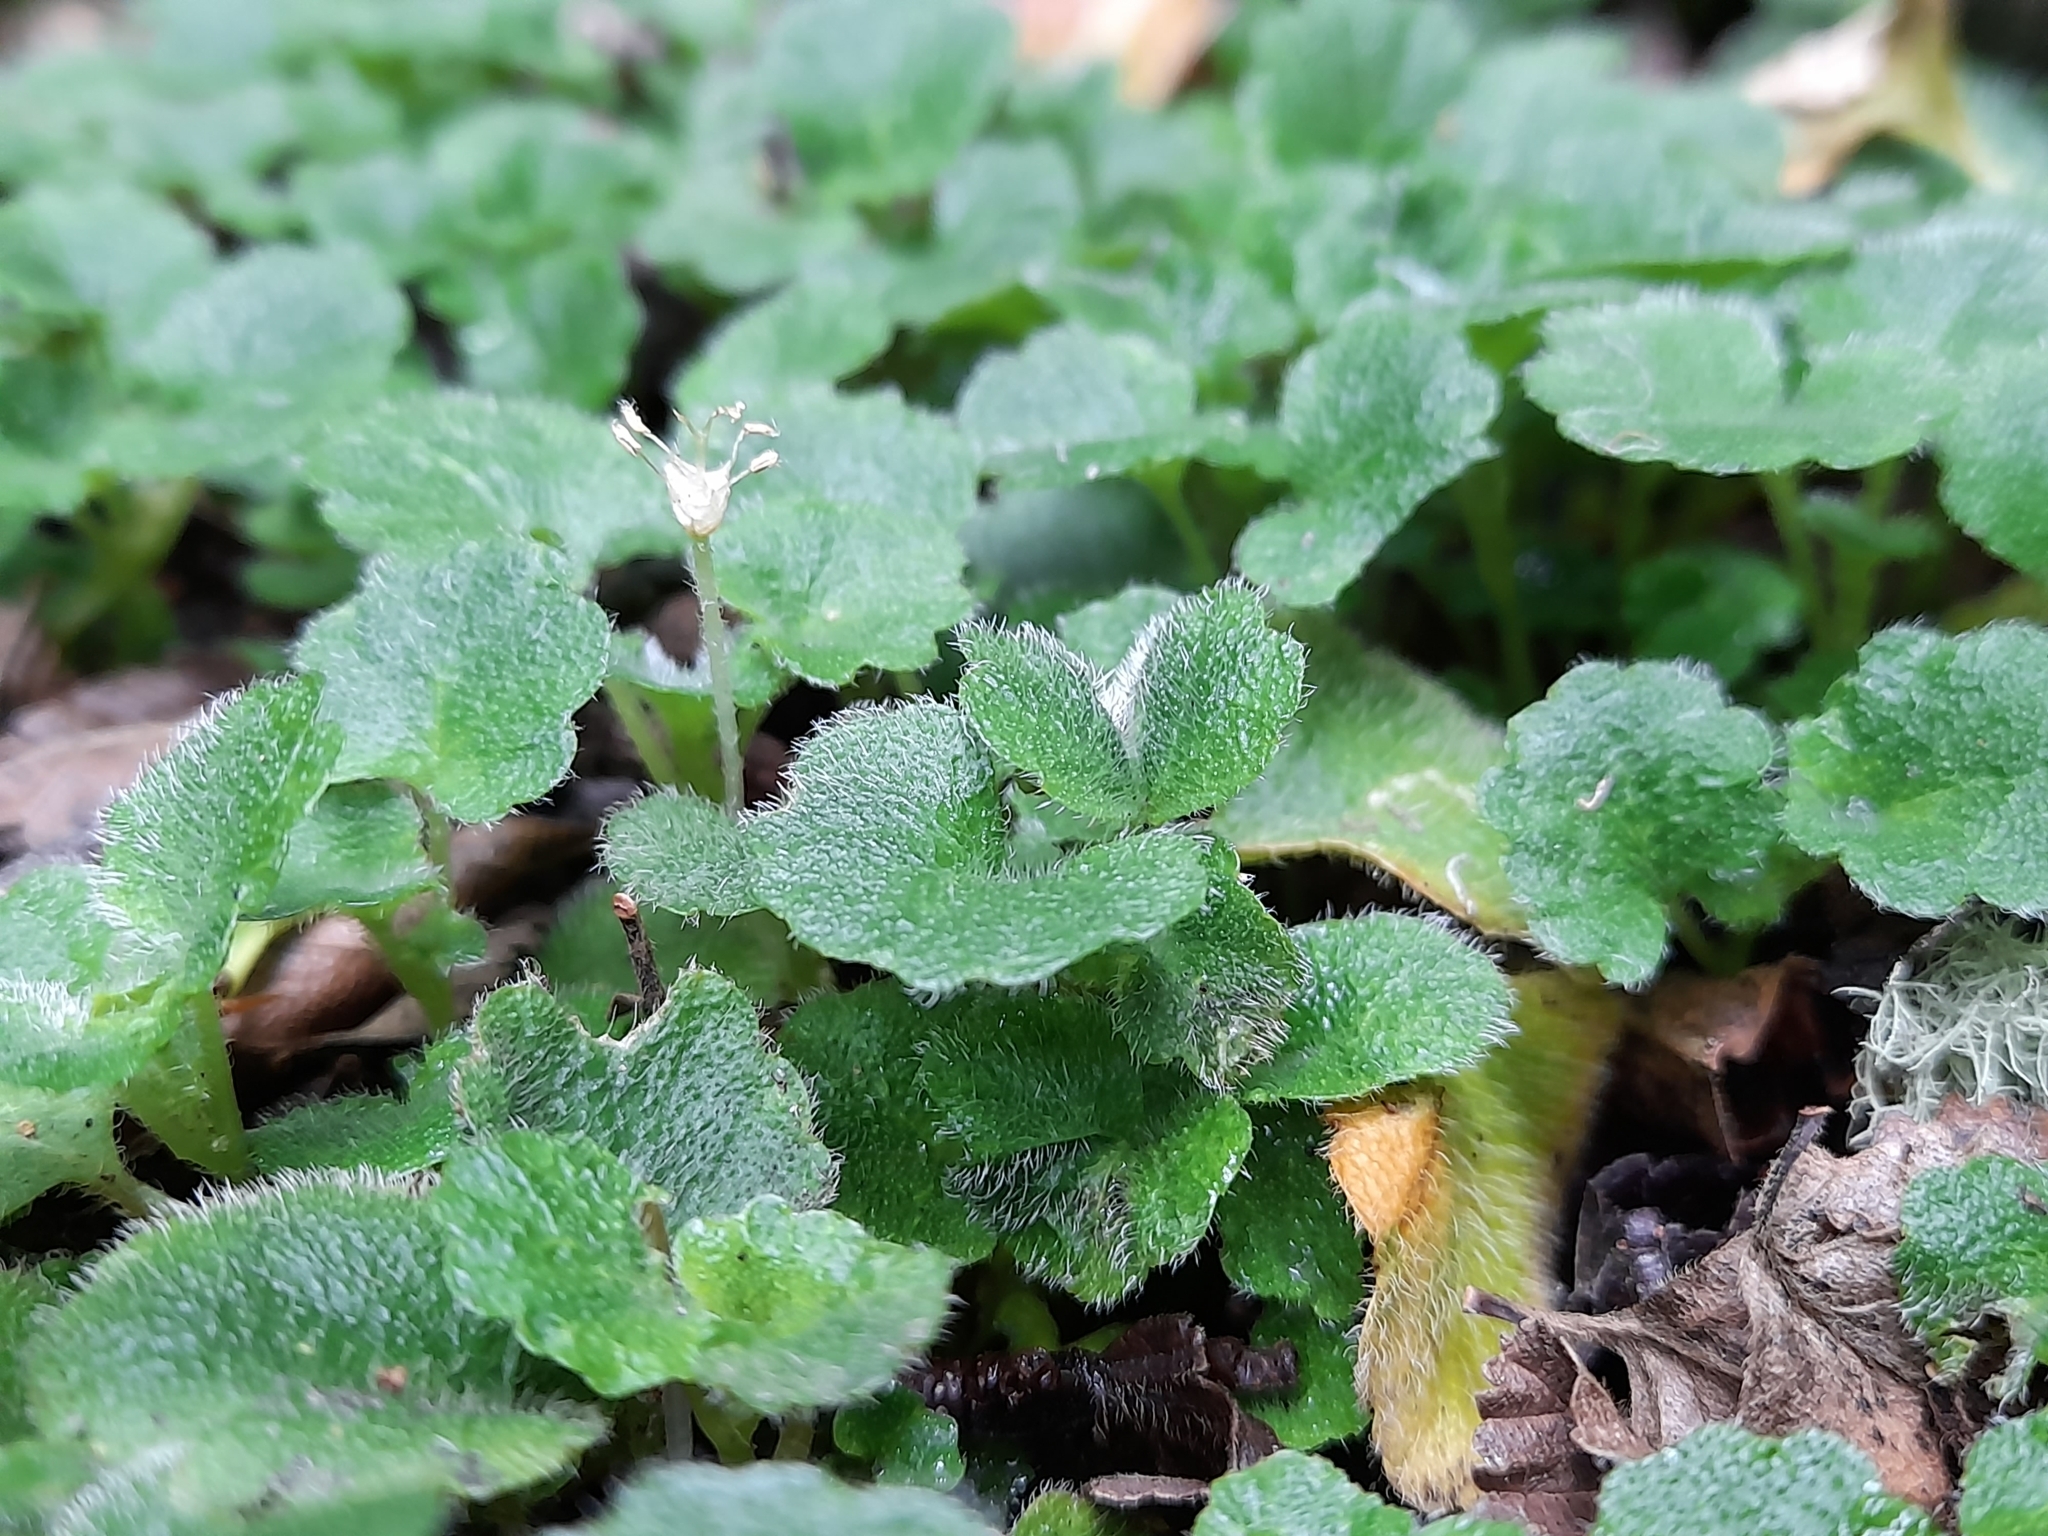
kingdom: Plantae
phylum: Tracheophyta
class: Magnoliopsida
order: Malpighiales
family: Euphorbiaceae
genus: Dysopsis
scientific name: Dysopsis glechomoides
